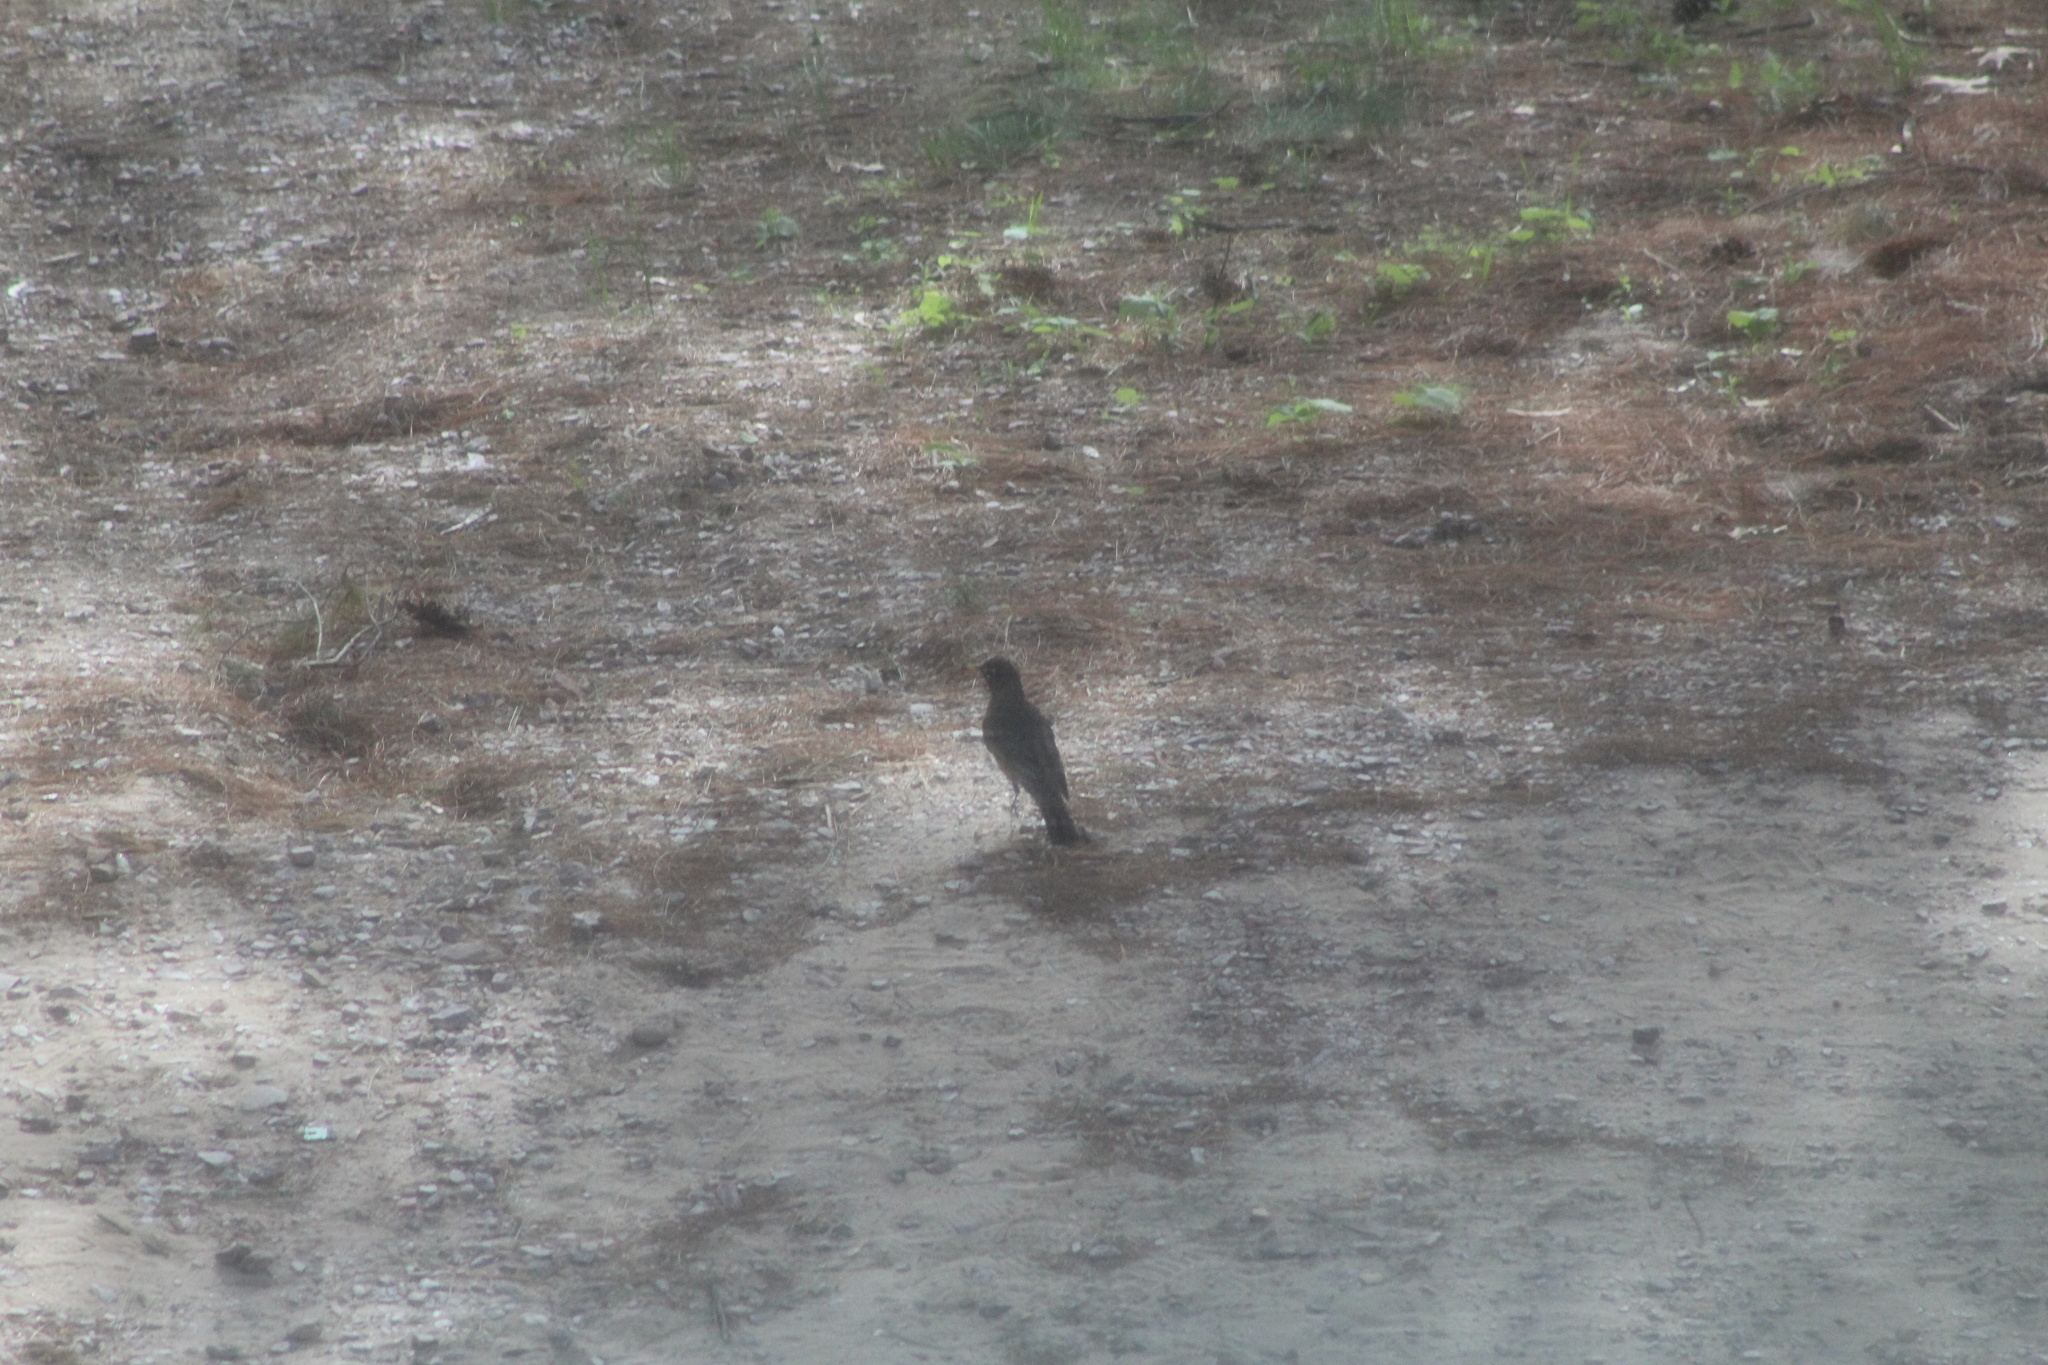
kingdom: Animalia
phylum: Chordata
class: Aves
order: Passeriformes
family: Turdidae
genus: Turdus
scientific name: Turdus migratorius
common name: American robin
